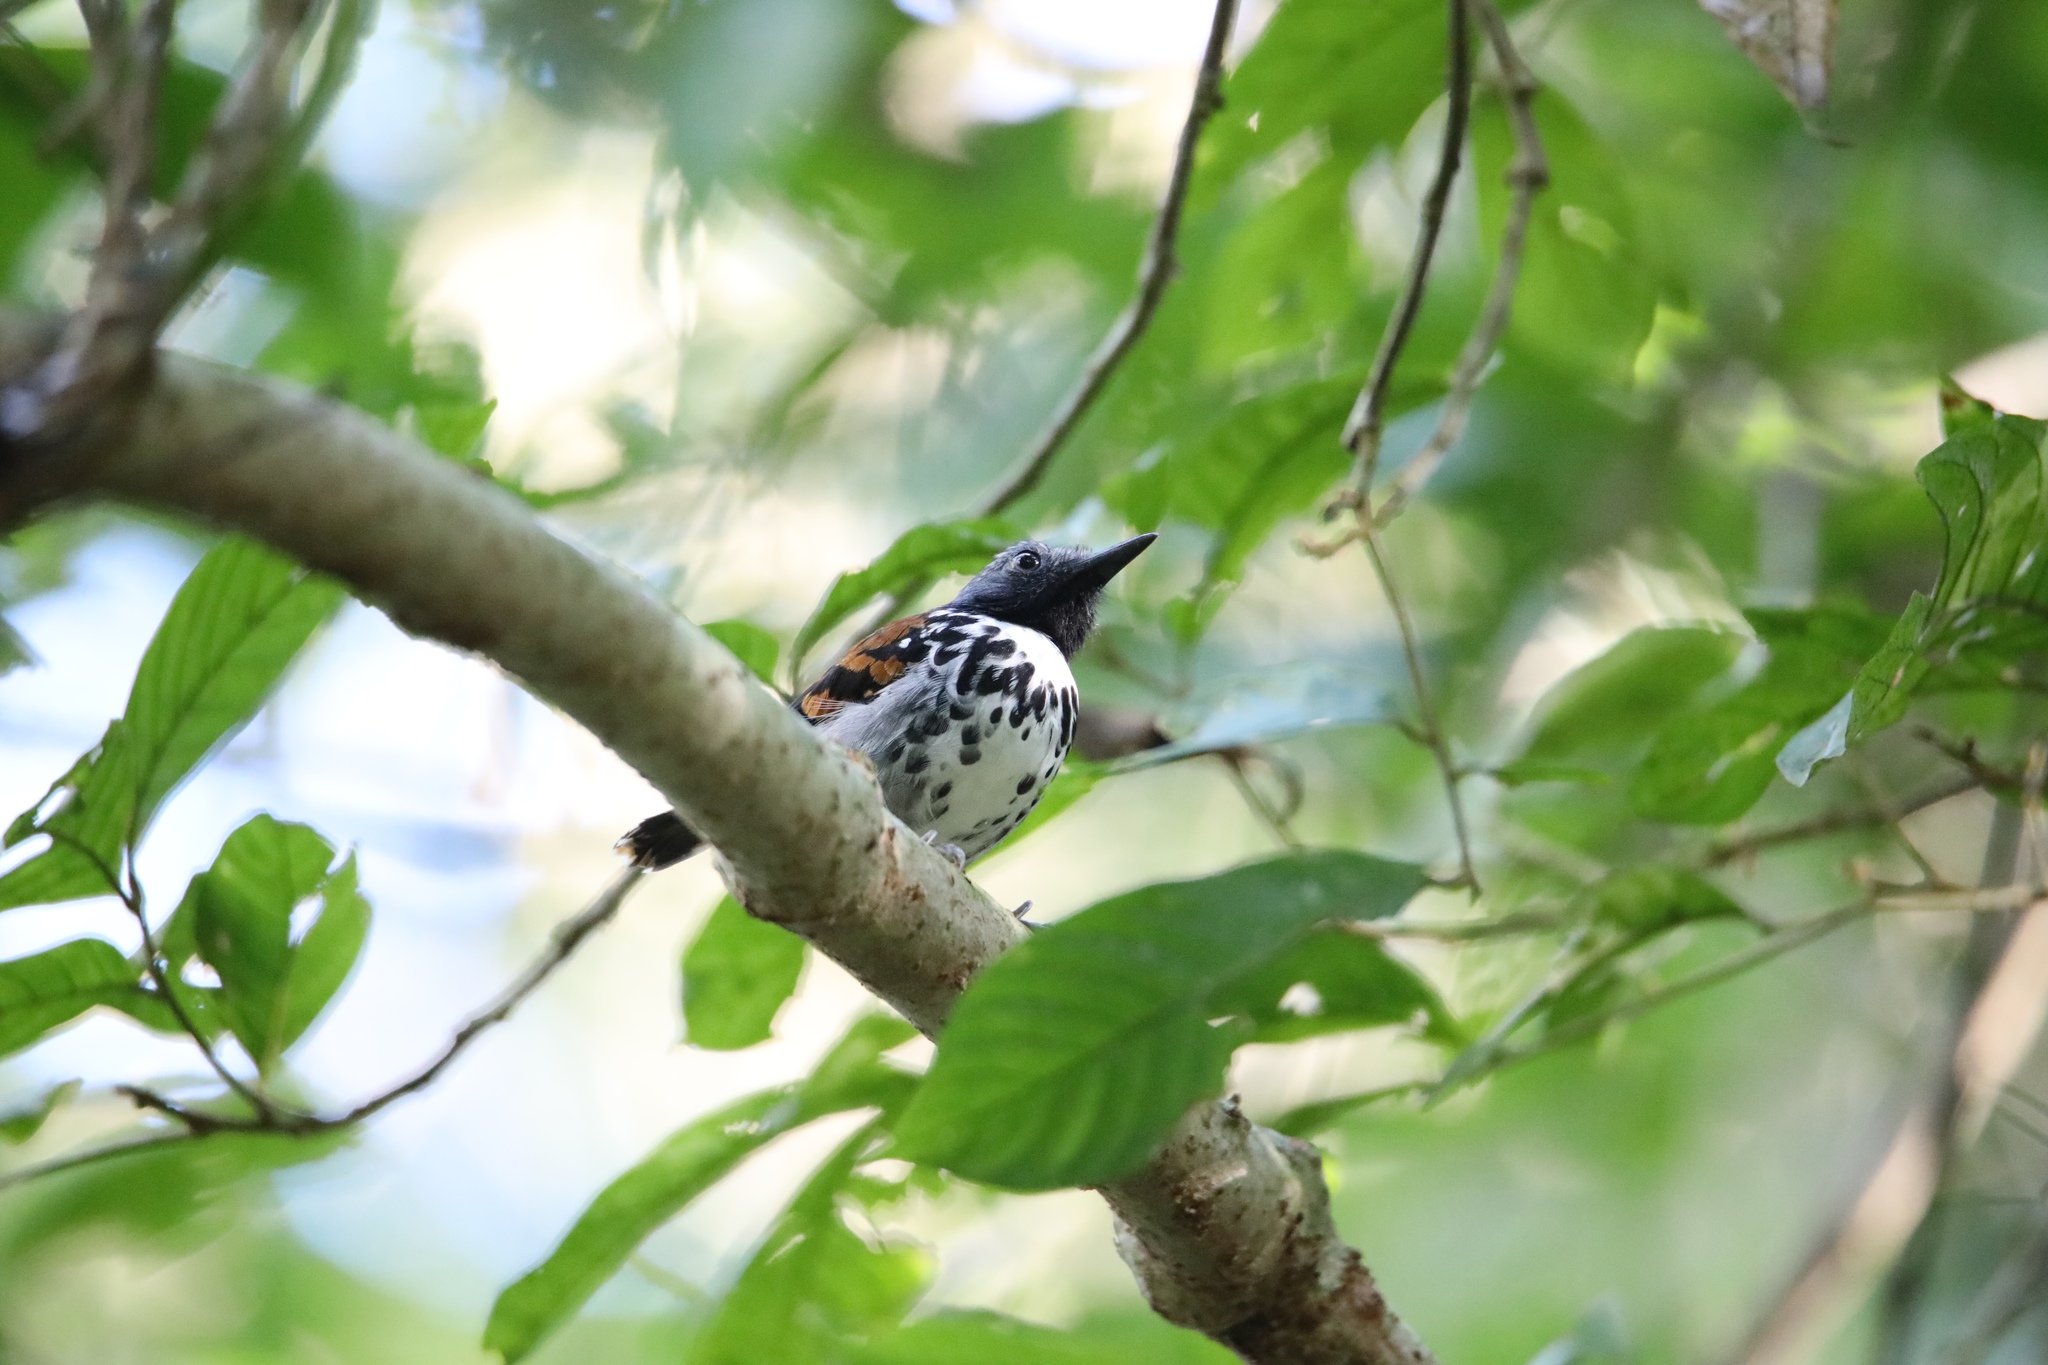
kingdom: Animalia
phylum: Chordata
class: Aves
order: Passeriformes
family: Thamnophilidae
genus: Hylophylax
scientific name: Hylophylax naevioides
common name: Spotted antbird
